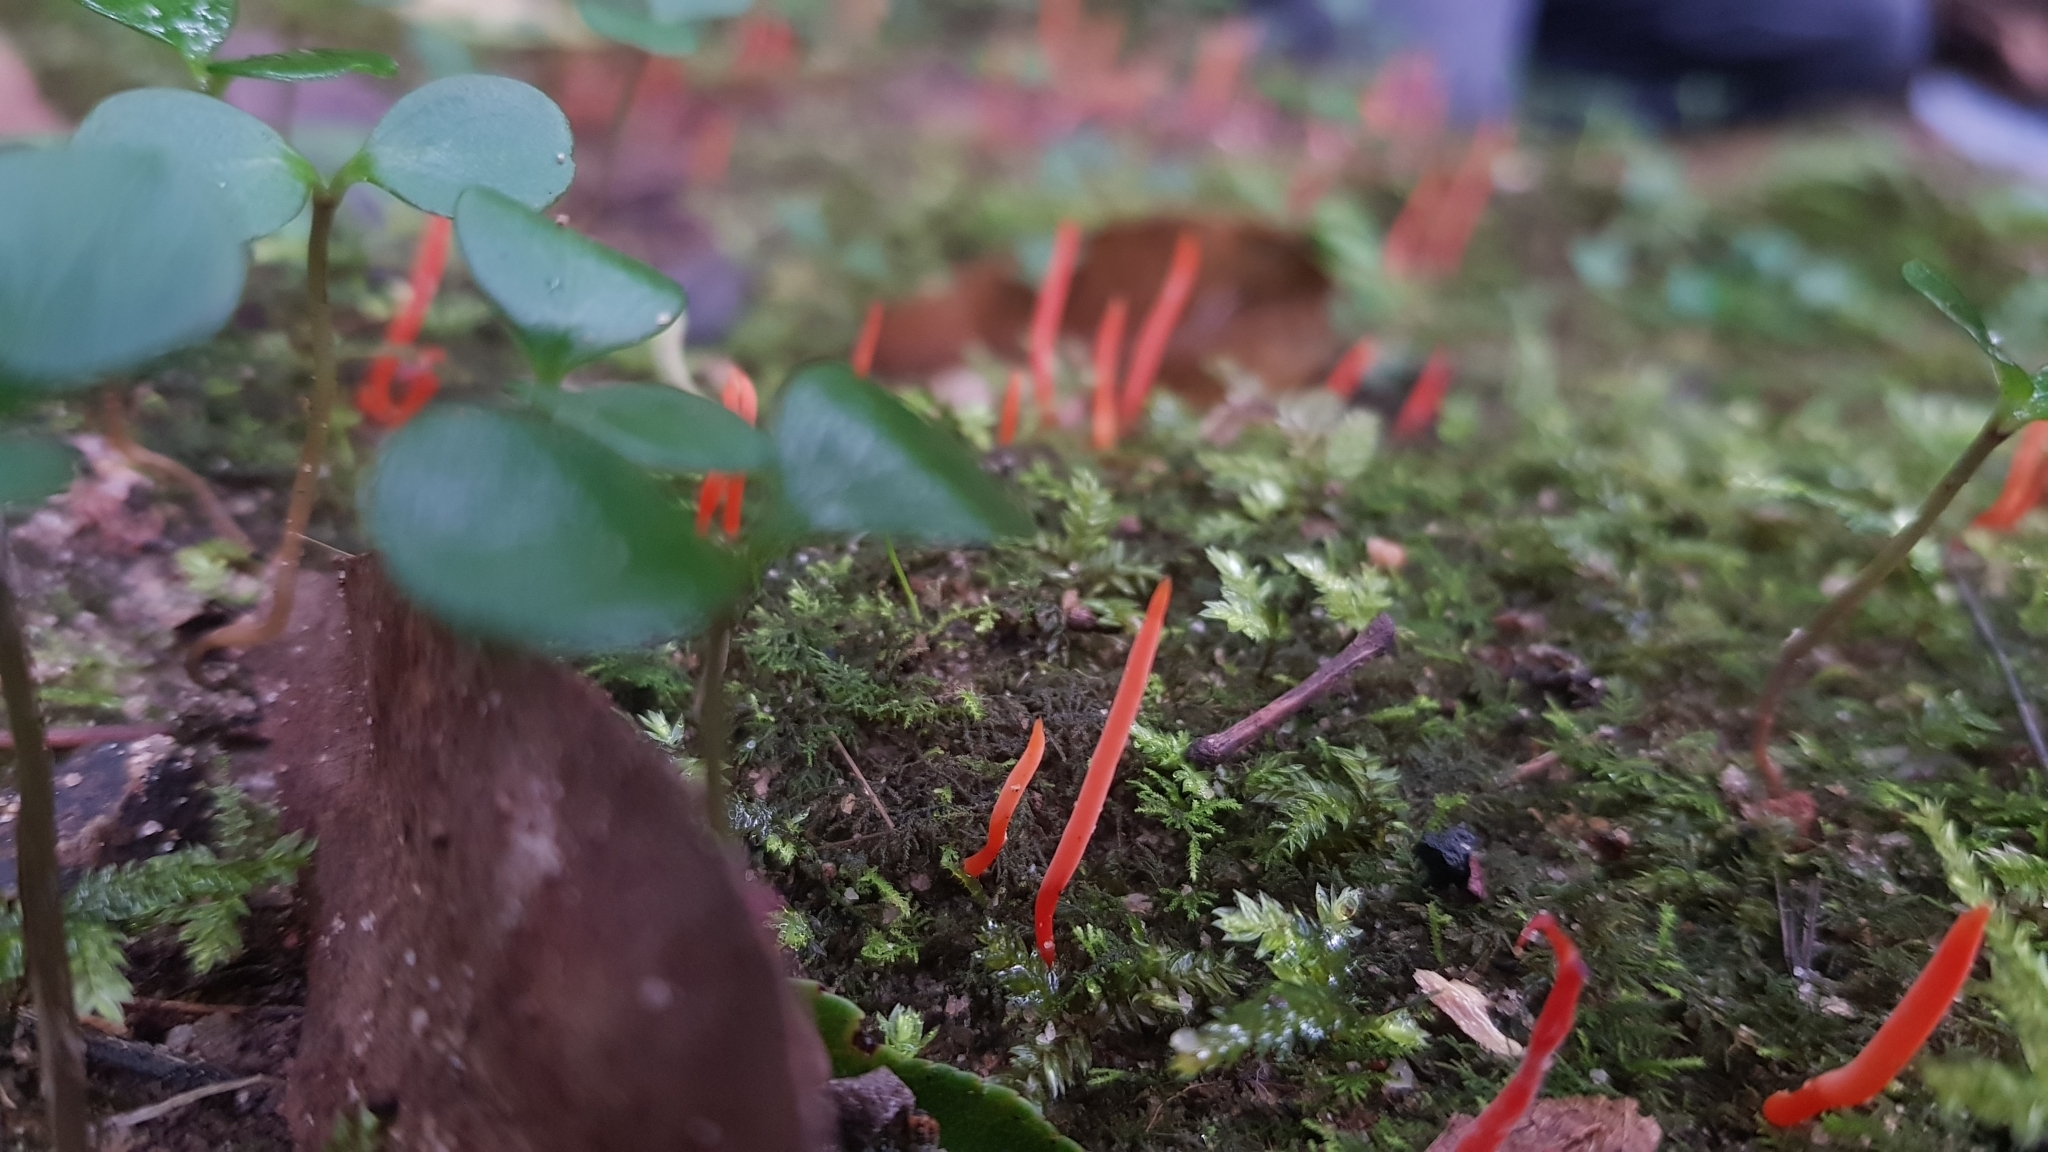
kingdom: Fungi
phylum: Basidiomycota
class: Agaricomycetes
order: Agaricales
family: Clavariaceae
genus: Clavulinopsis
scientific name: Clavulinopsis corallinorosacea
